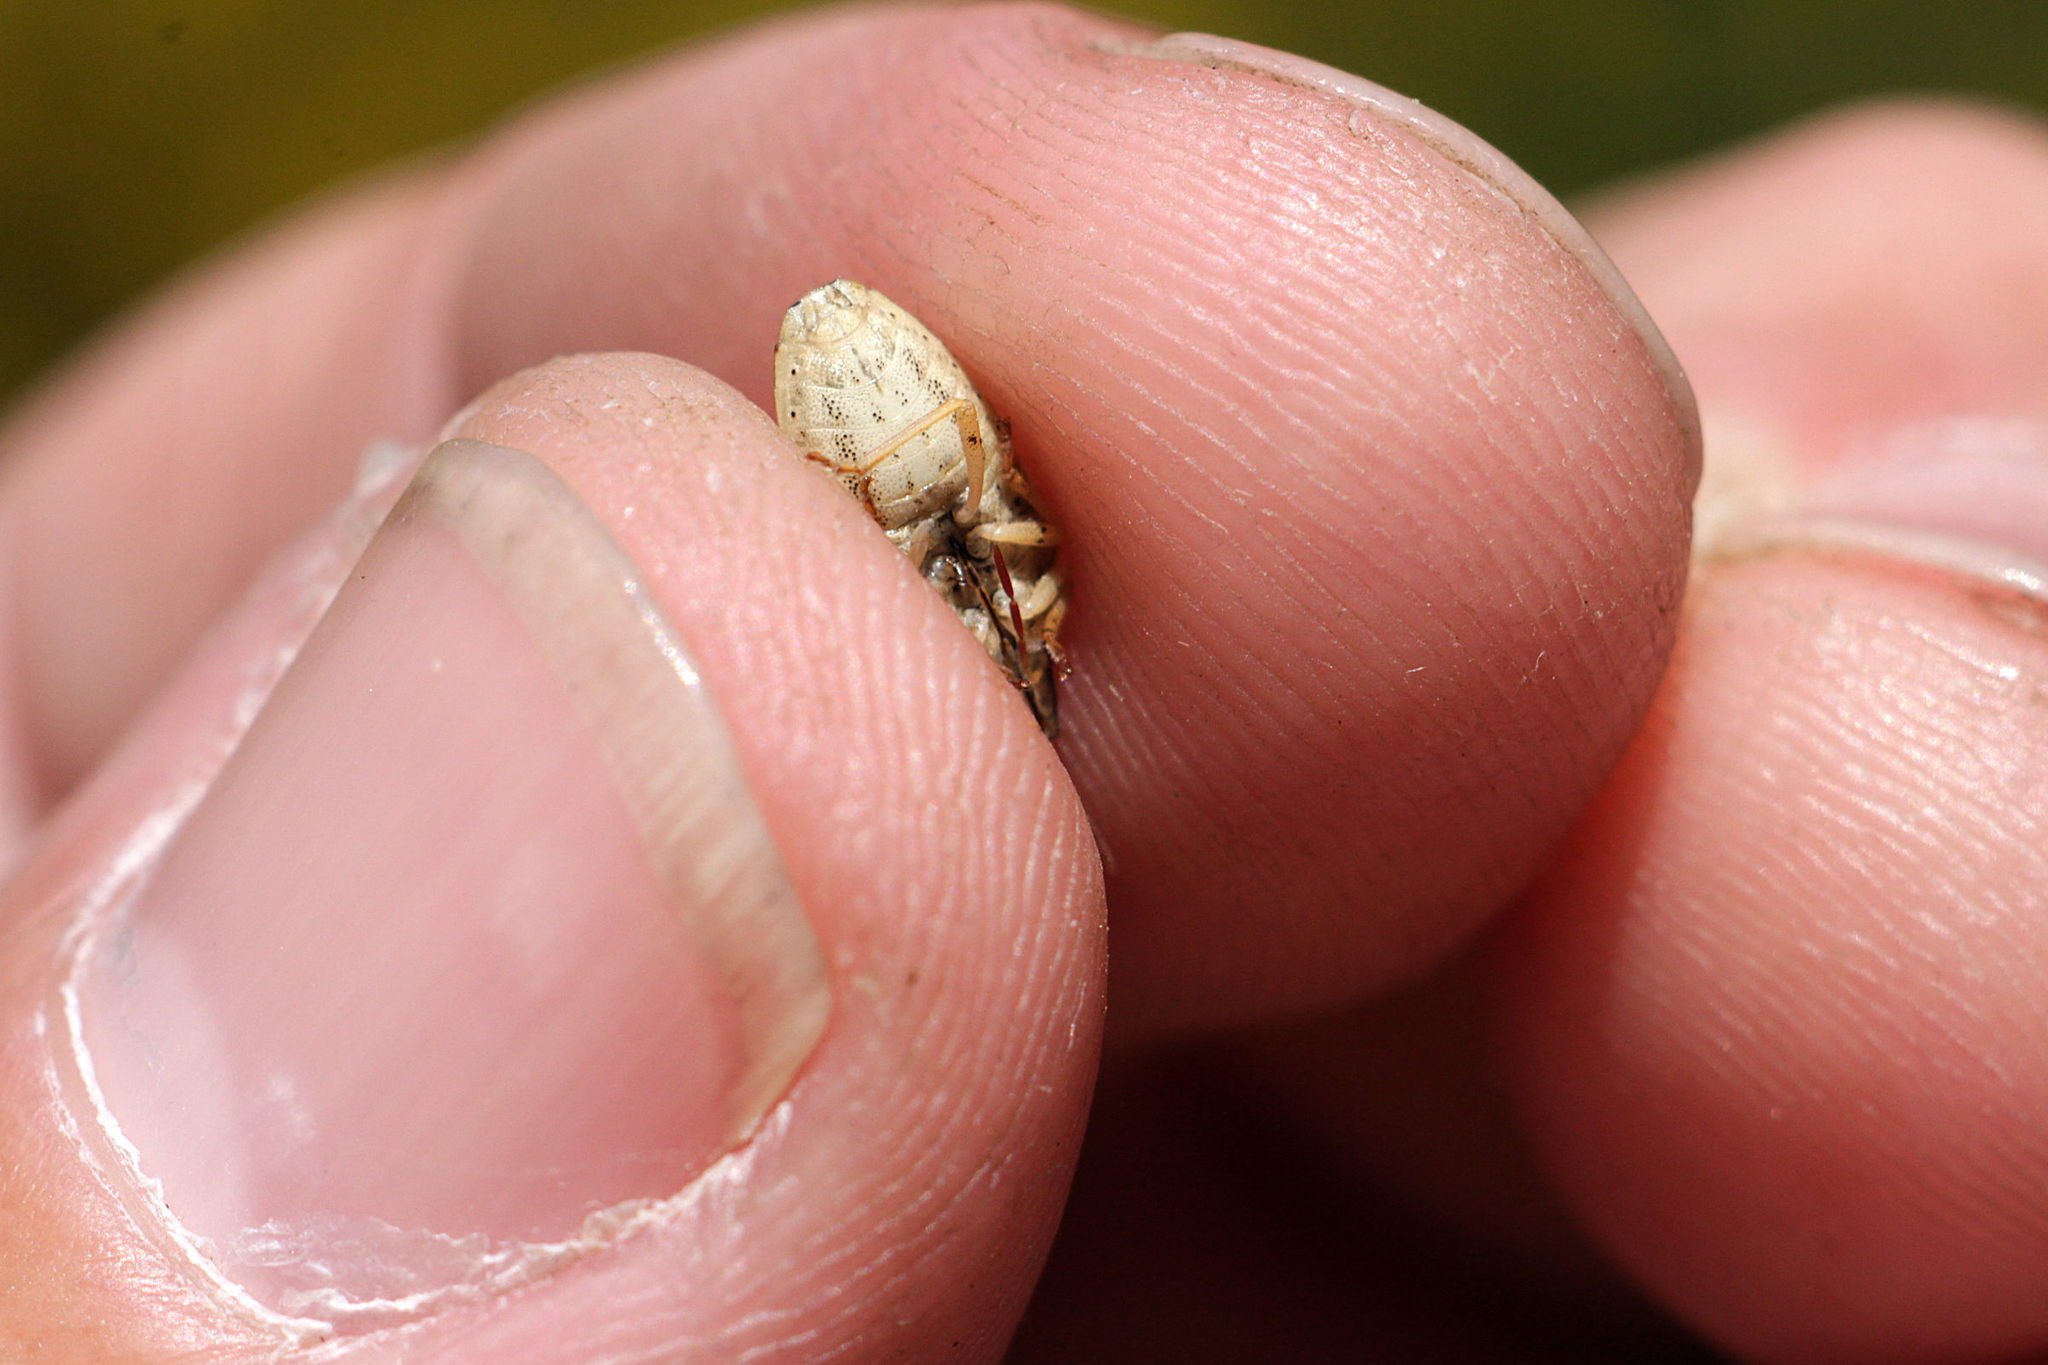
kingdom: Animalia
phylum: Arthropoda
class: Insecta
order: Hemiptera
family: Pentatomidae
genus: Aelia
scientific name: Aelia acuminata
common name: Bishop's mitre
